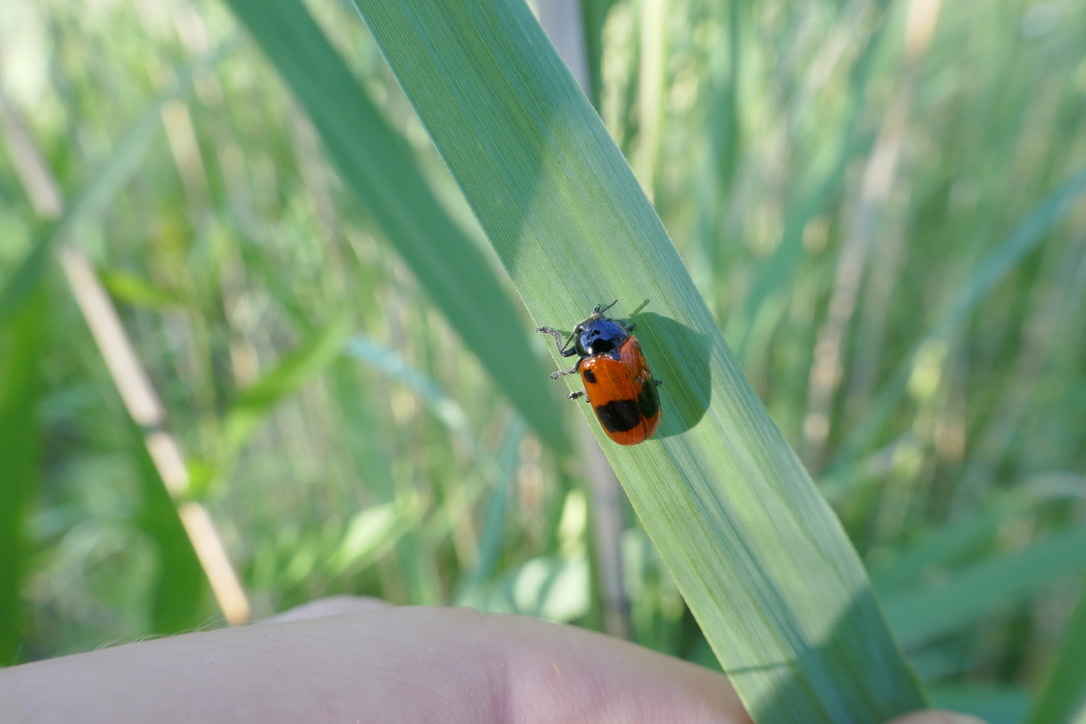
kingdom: Animalia
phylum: Arthropoda
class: Insecta
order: Coleoptera
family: Chrysomelidae
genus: Clytra
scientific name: Clytra laeviuscula
